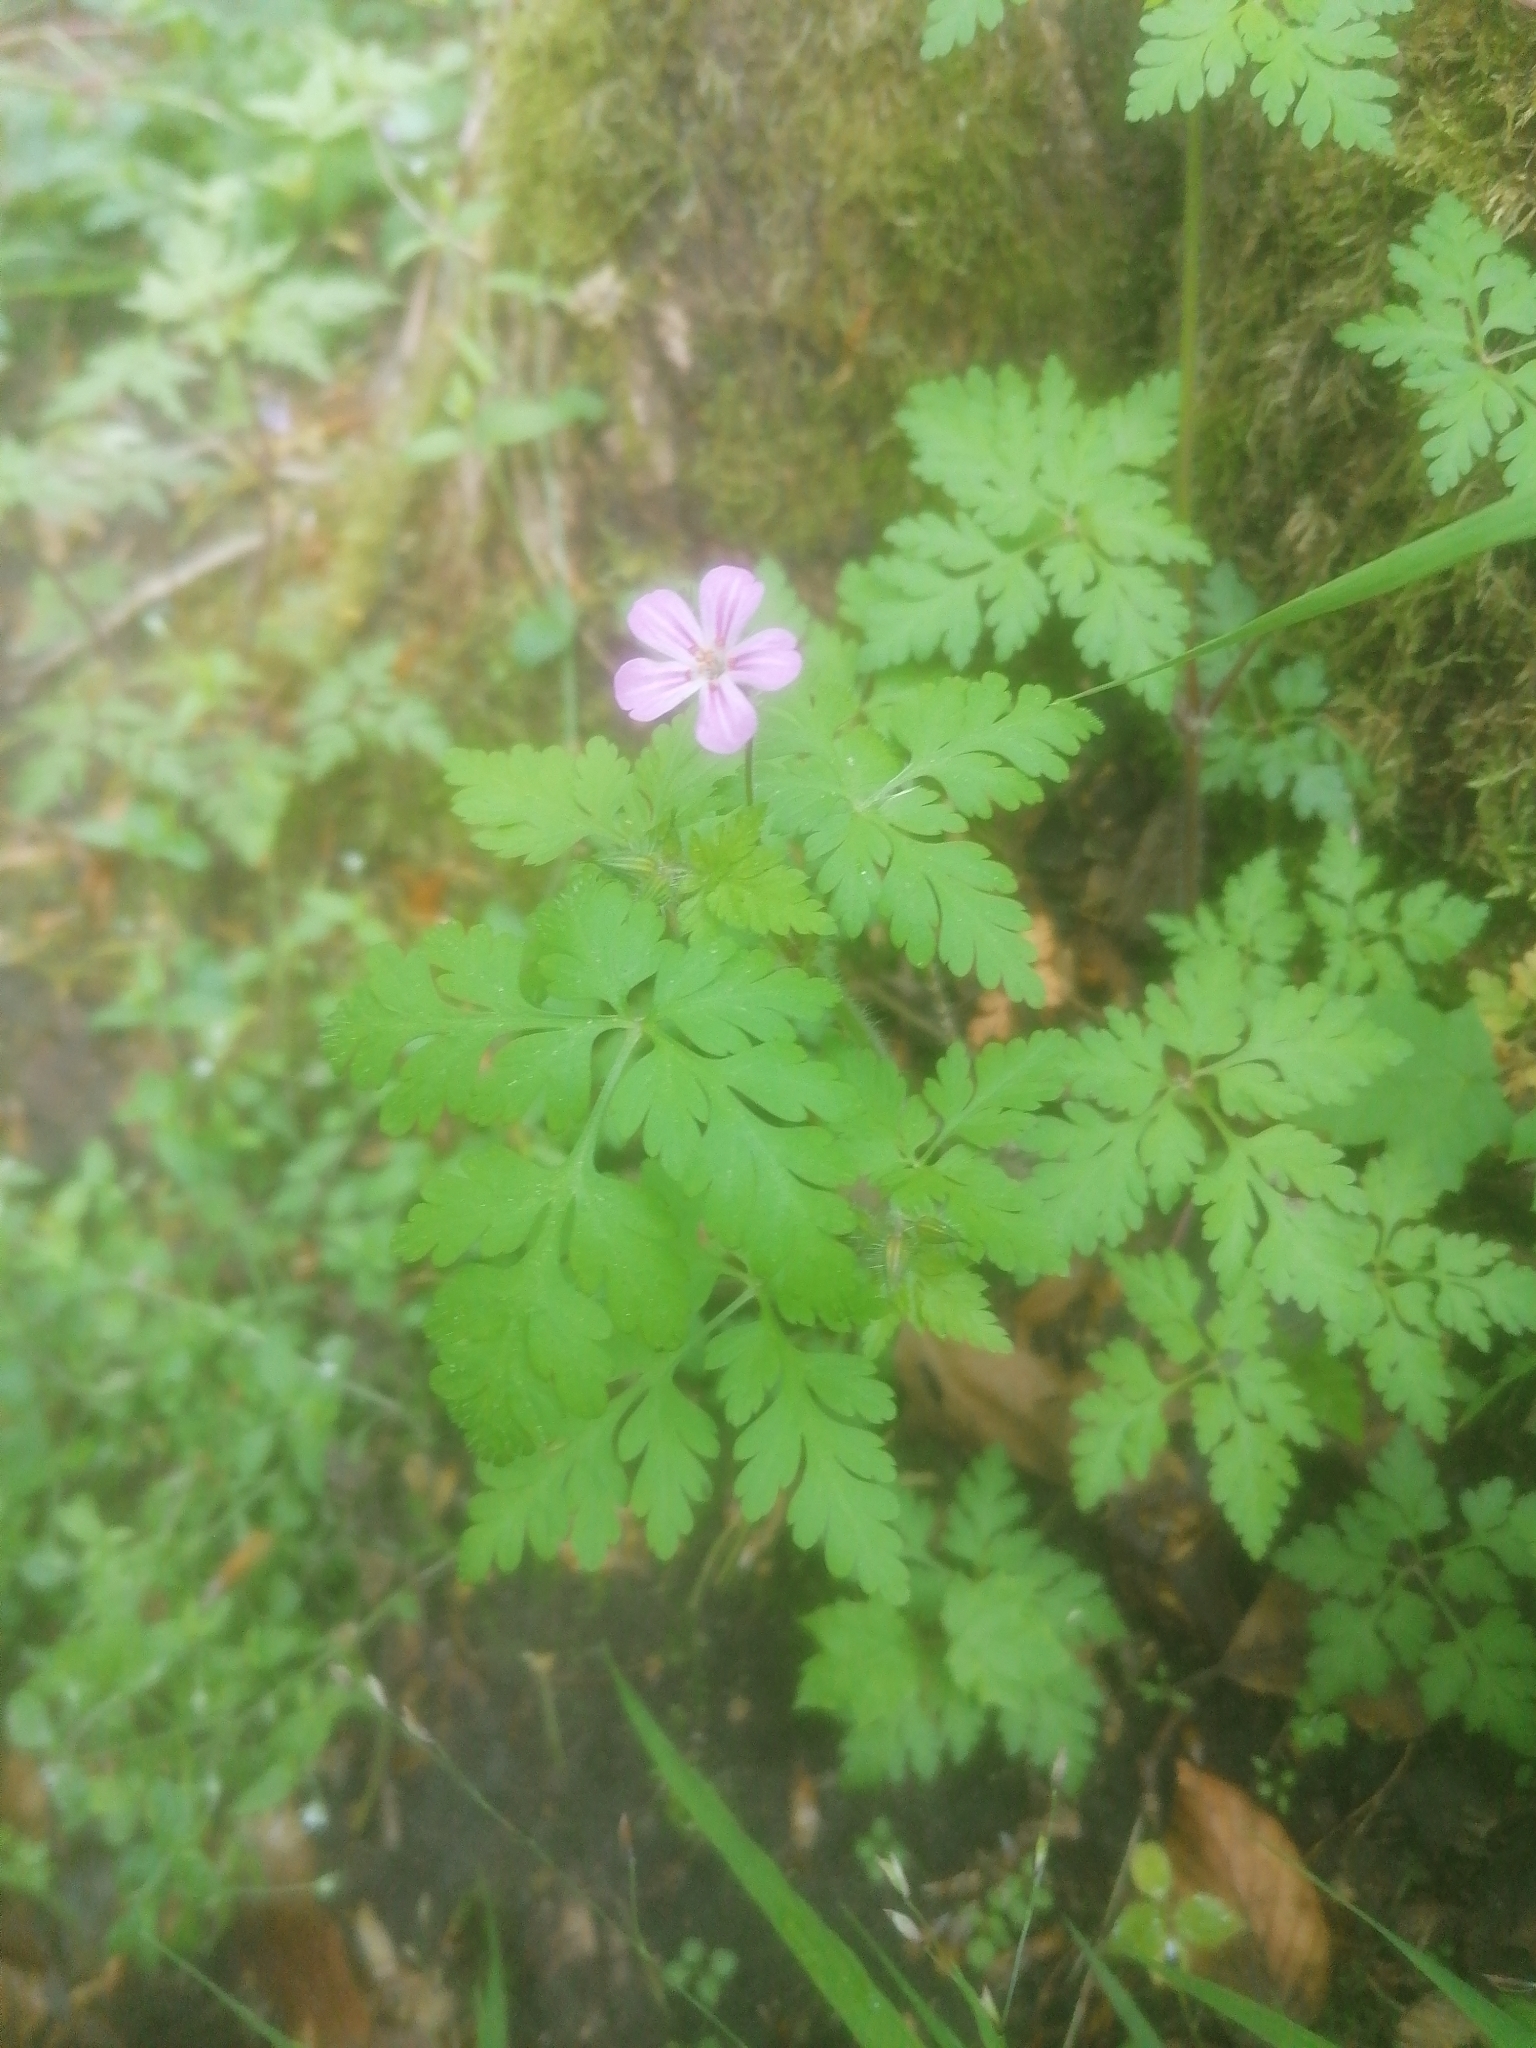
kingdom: Plantae
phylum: Tracheophyta
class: Magnoliopsida
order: Geraniales
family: Geraniaceae
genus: Geranium
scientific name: Geranium robertianum
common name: Herb-robert
